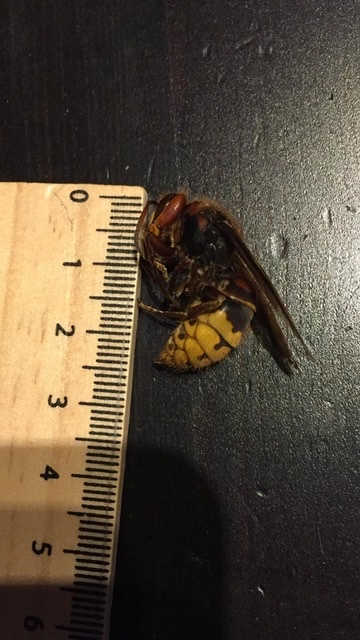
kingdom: Animalia
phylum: Arthropoda
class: Insecta
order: Hymenoptera
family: Vespidae
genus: Vespa
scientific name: Vespa crabro
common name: Hornet
